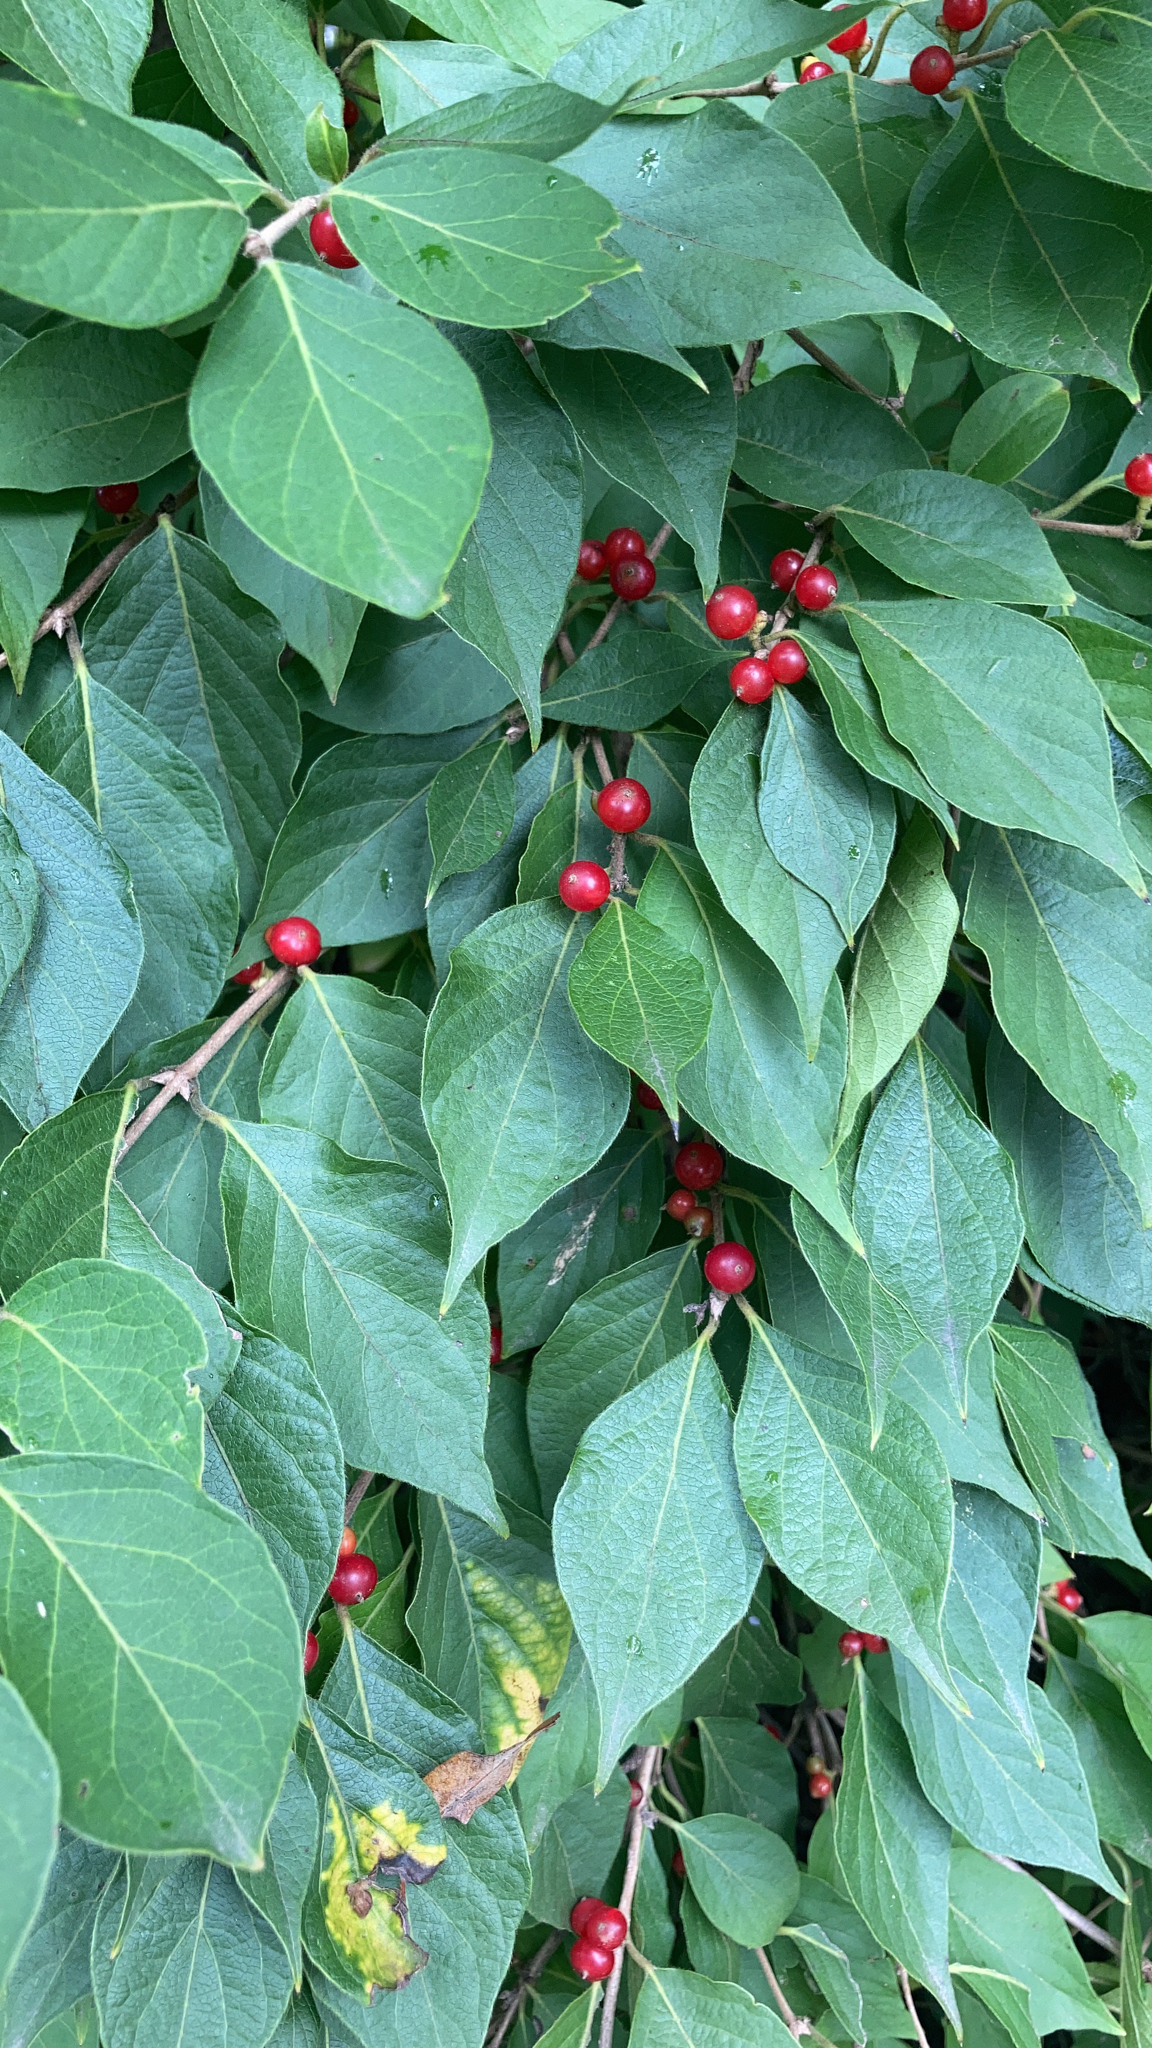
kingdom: Plantae
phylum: Tracheophyta
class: Magnoliopsida
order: Dipsacales
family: Caprifoliaceae
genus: Lonicera
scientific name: Lonicera maackii
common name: Amur honeysuckle
